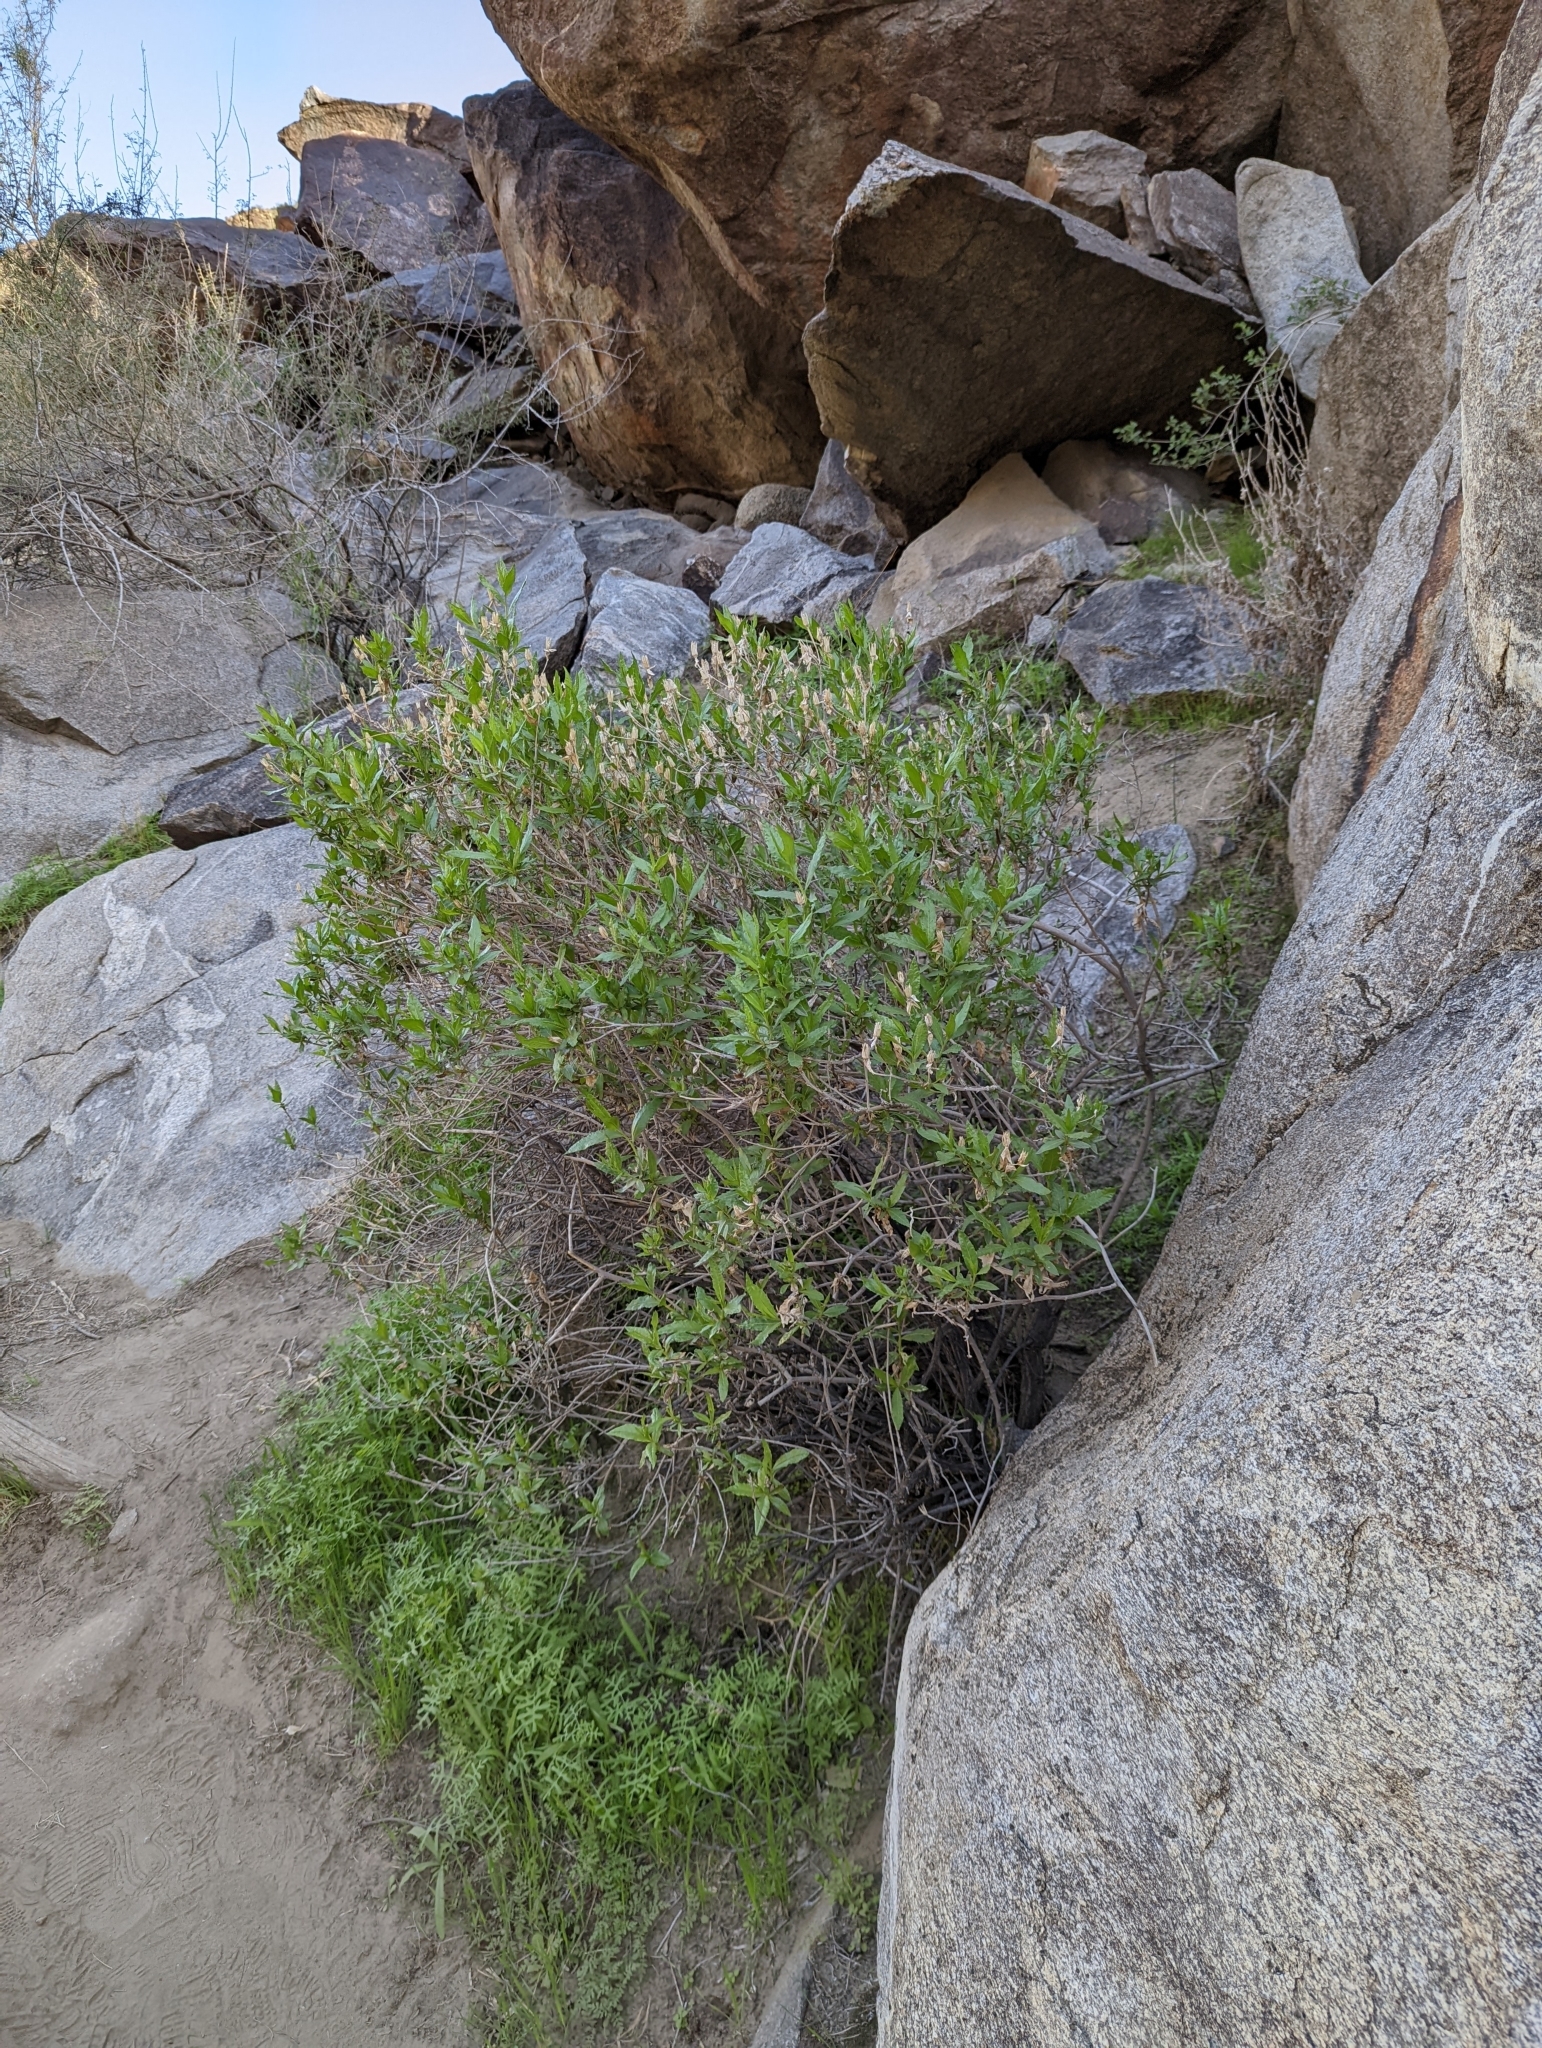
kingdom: Plantae
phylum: Tracheophyta
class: Magnoliopsida
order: Asterales
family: Asteraceae
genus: Trixis
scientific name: Trixis californica
